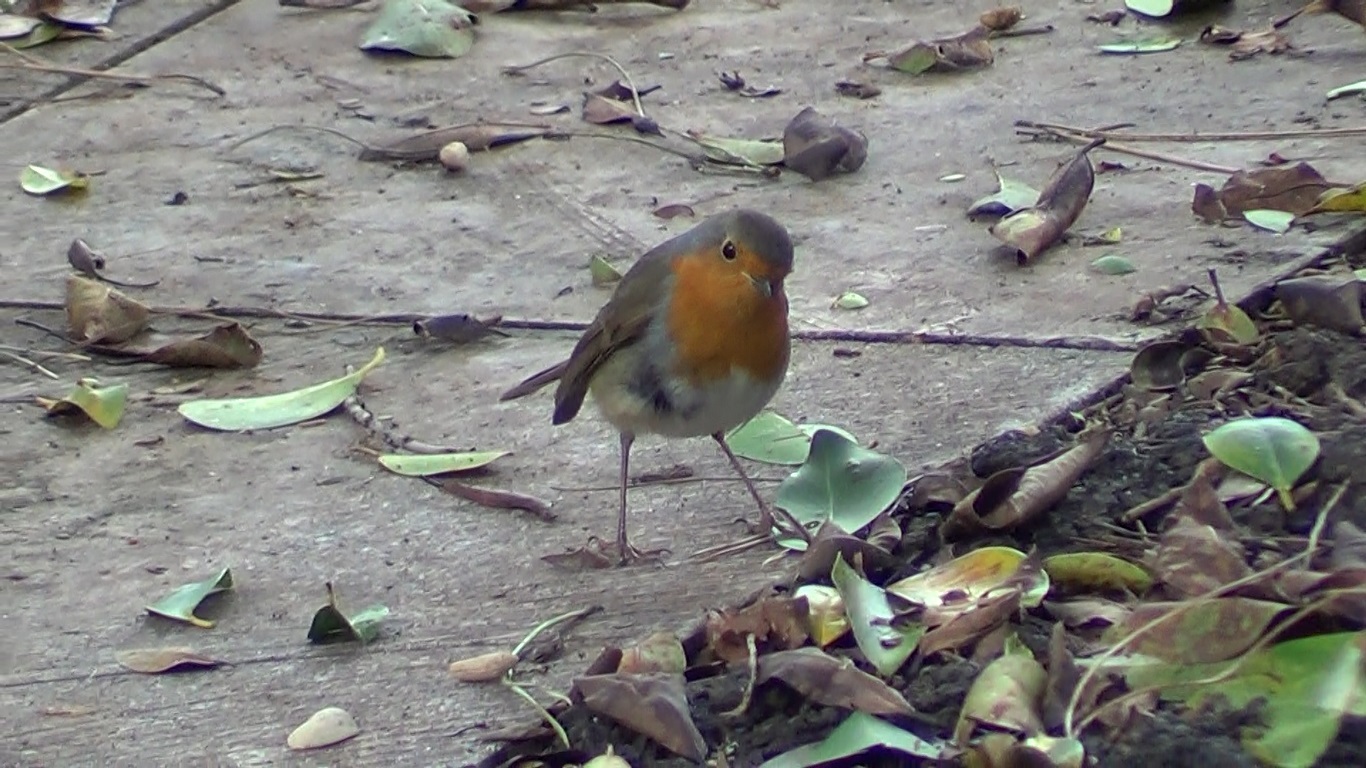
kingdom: Animalia
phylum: Chordata
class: Aves
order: Passeriformes
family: Muscicapidae
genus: Erithacus
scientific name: Erithacus rubecula
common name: European robin
